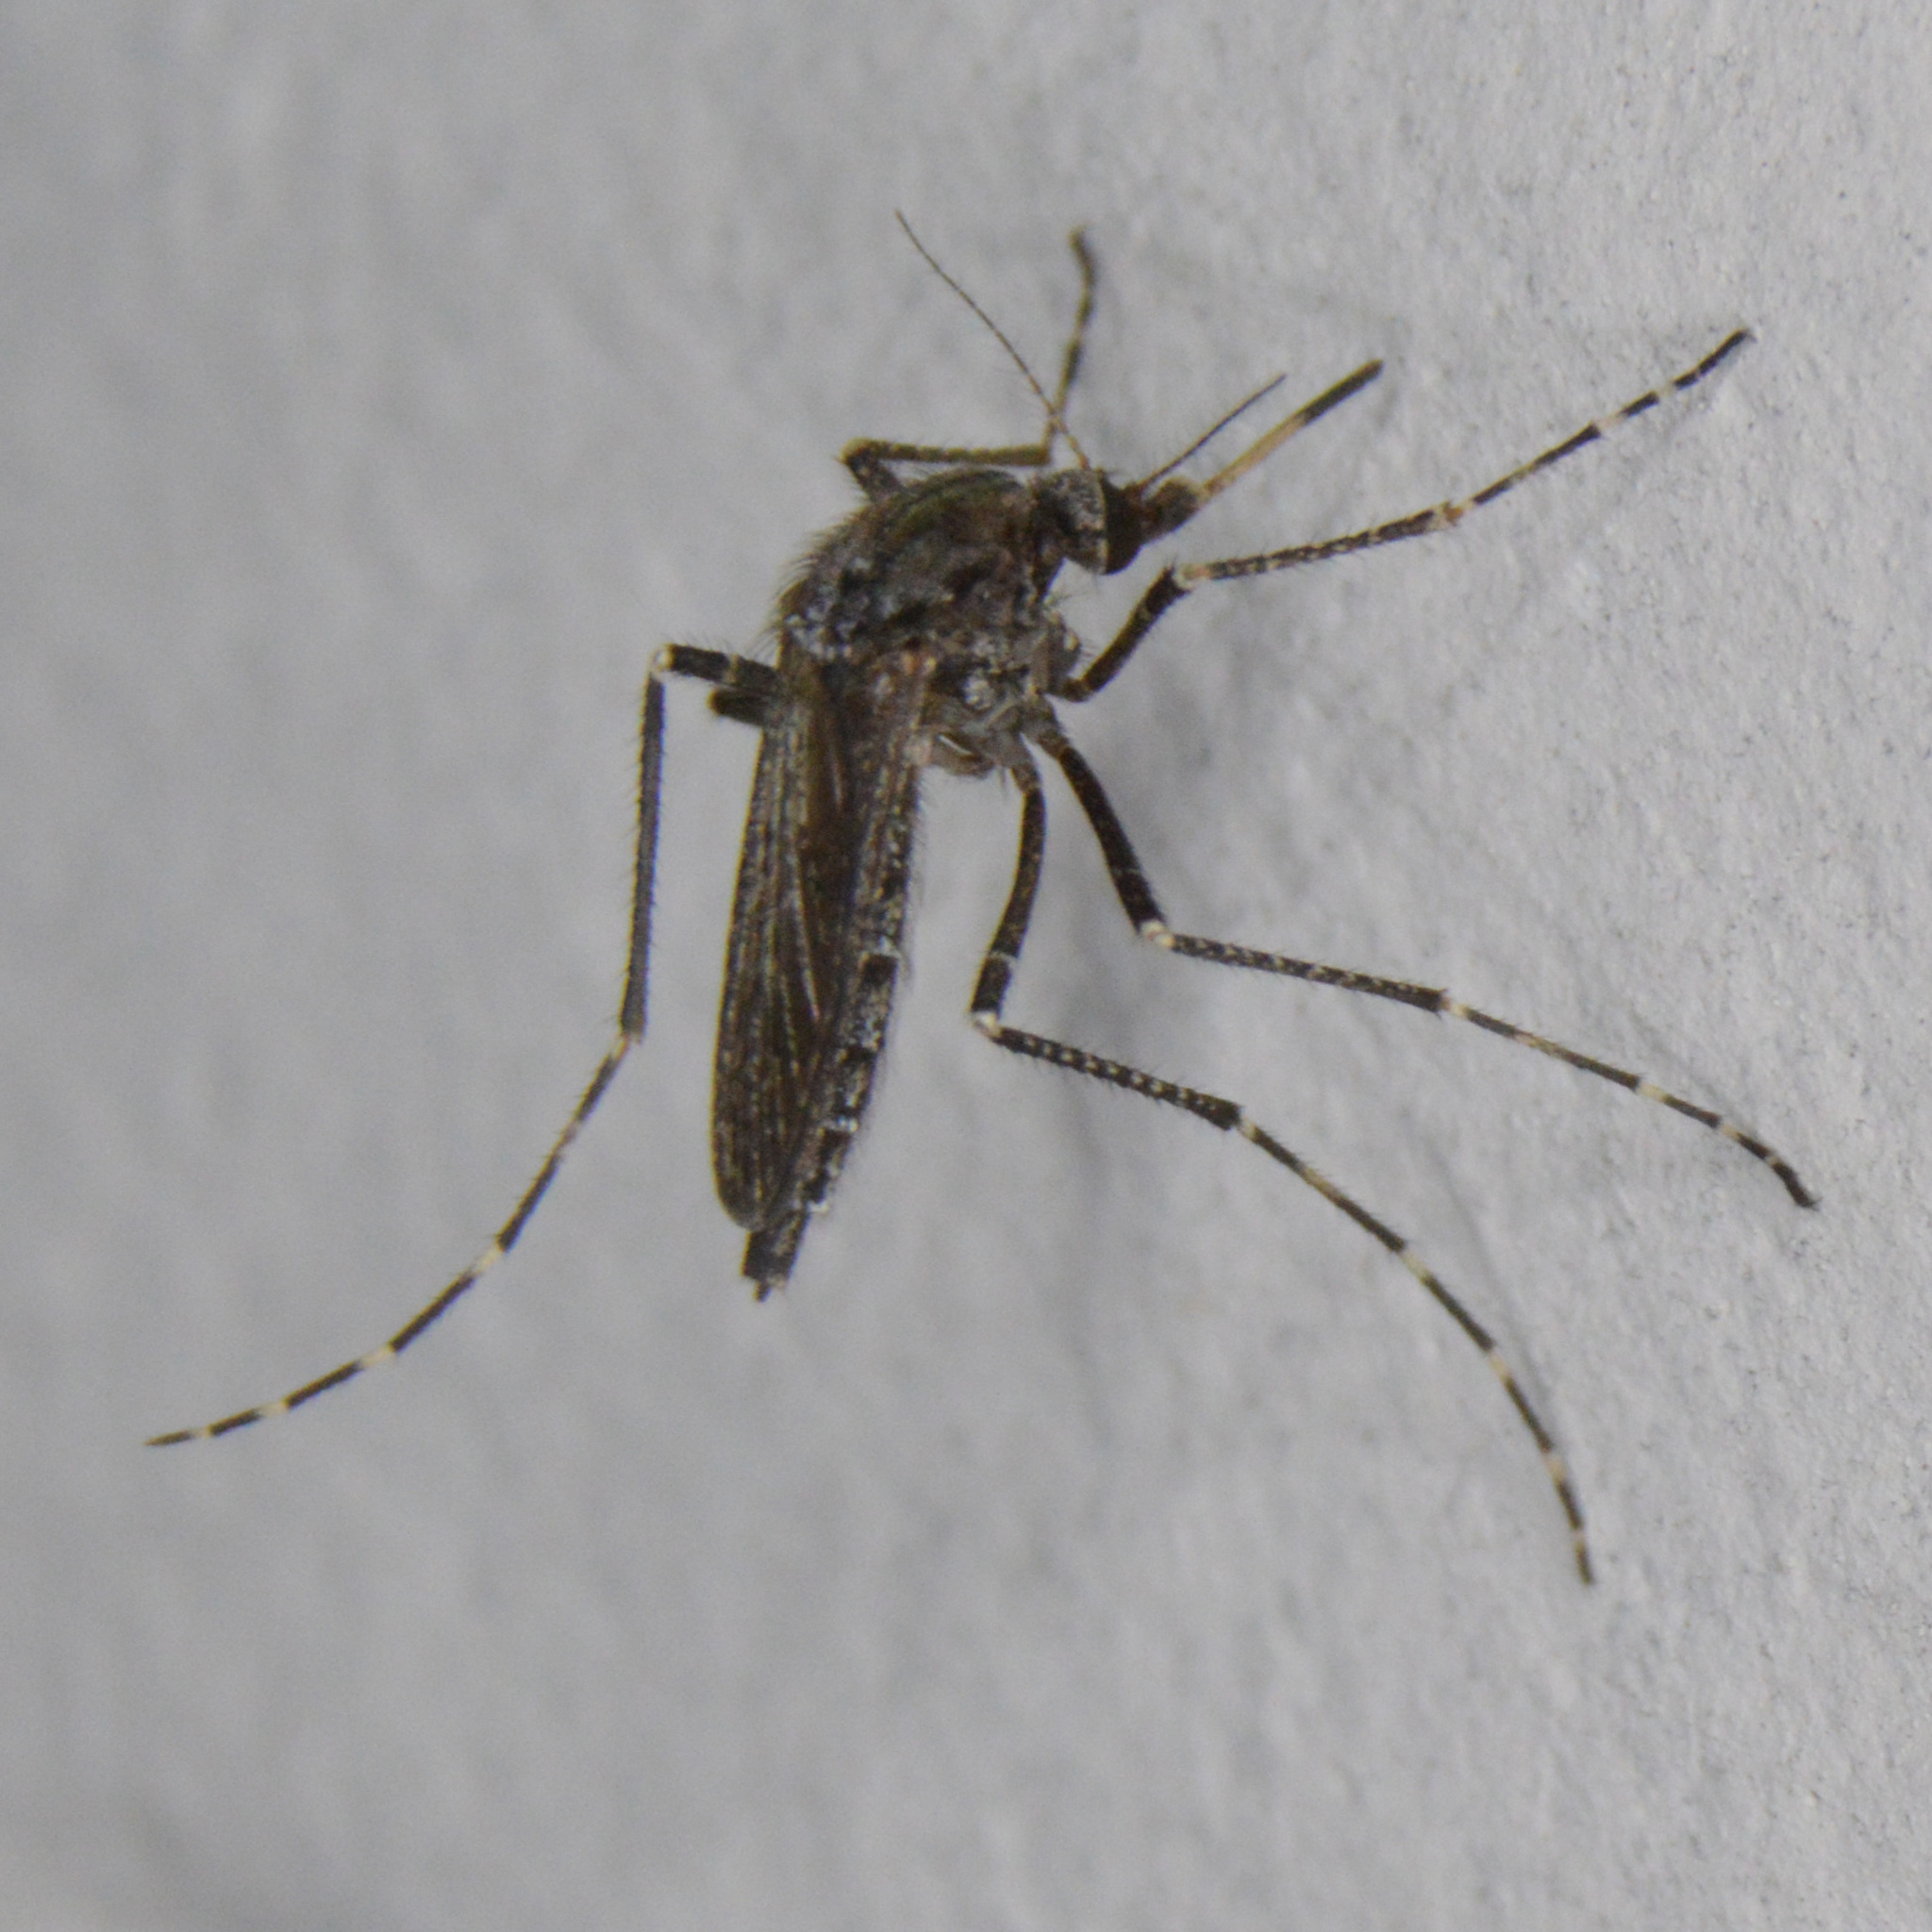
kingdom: Animalia
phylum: Arthropoda
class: Insecta
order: Diptera
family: Culicidae
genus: Psorophora
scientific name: Psorophora columbiae
